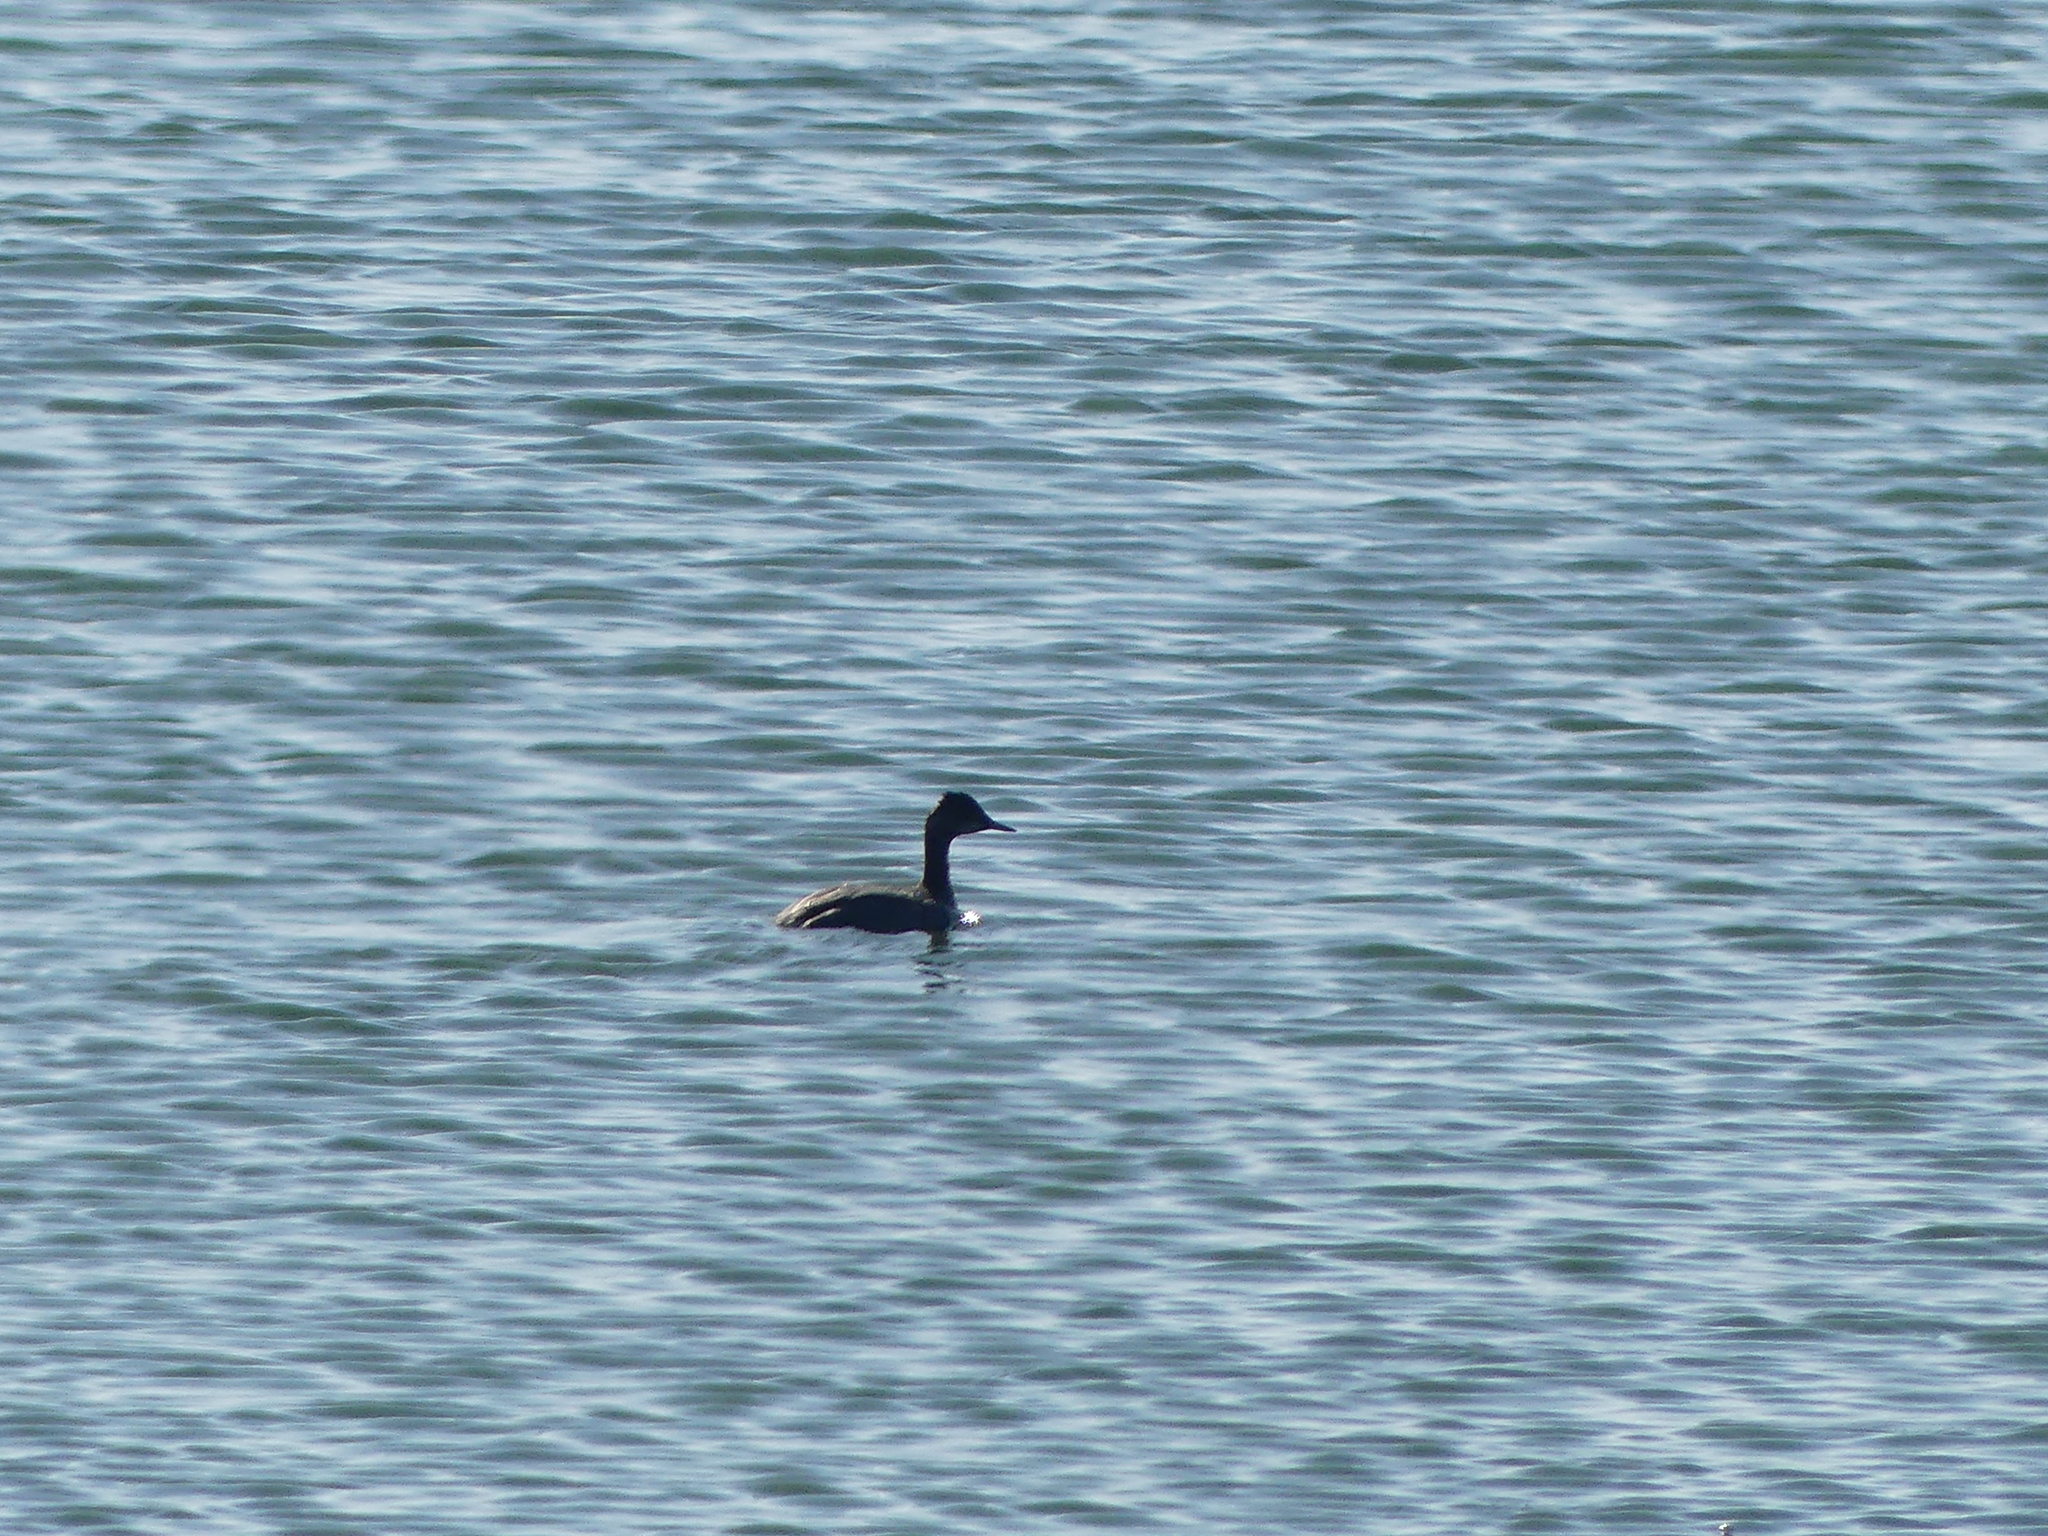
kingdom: Animalia
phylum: Chordata
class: Aves
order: Podicipediformes
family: Podicipedidae
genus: Podiceps
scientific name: Podiceps nigricollis
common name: Black-necked grebe
